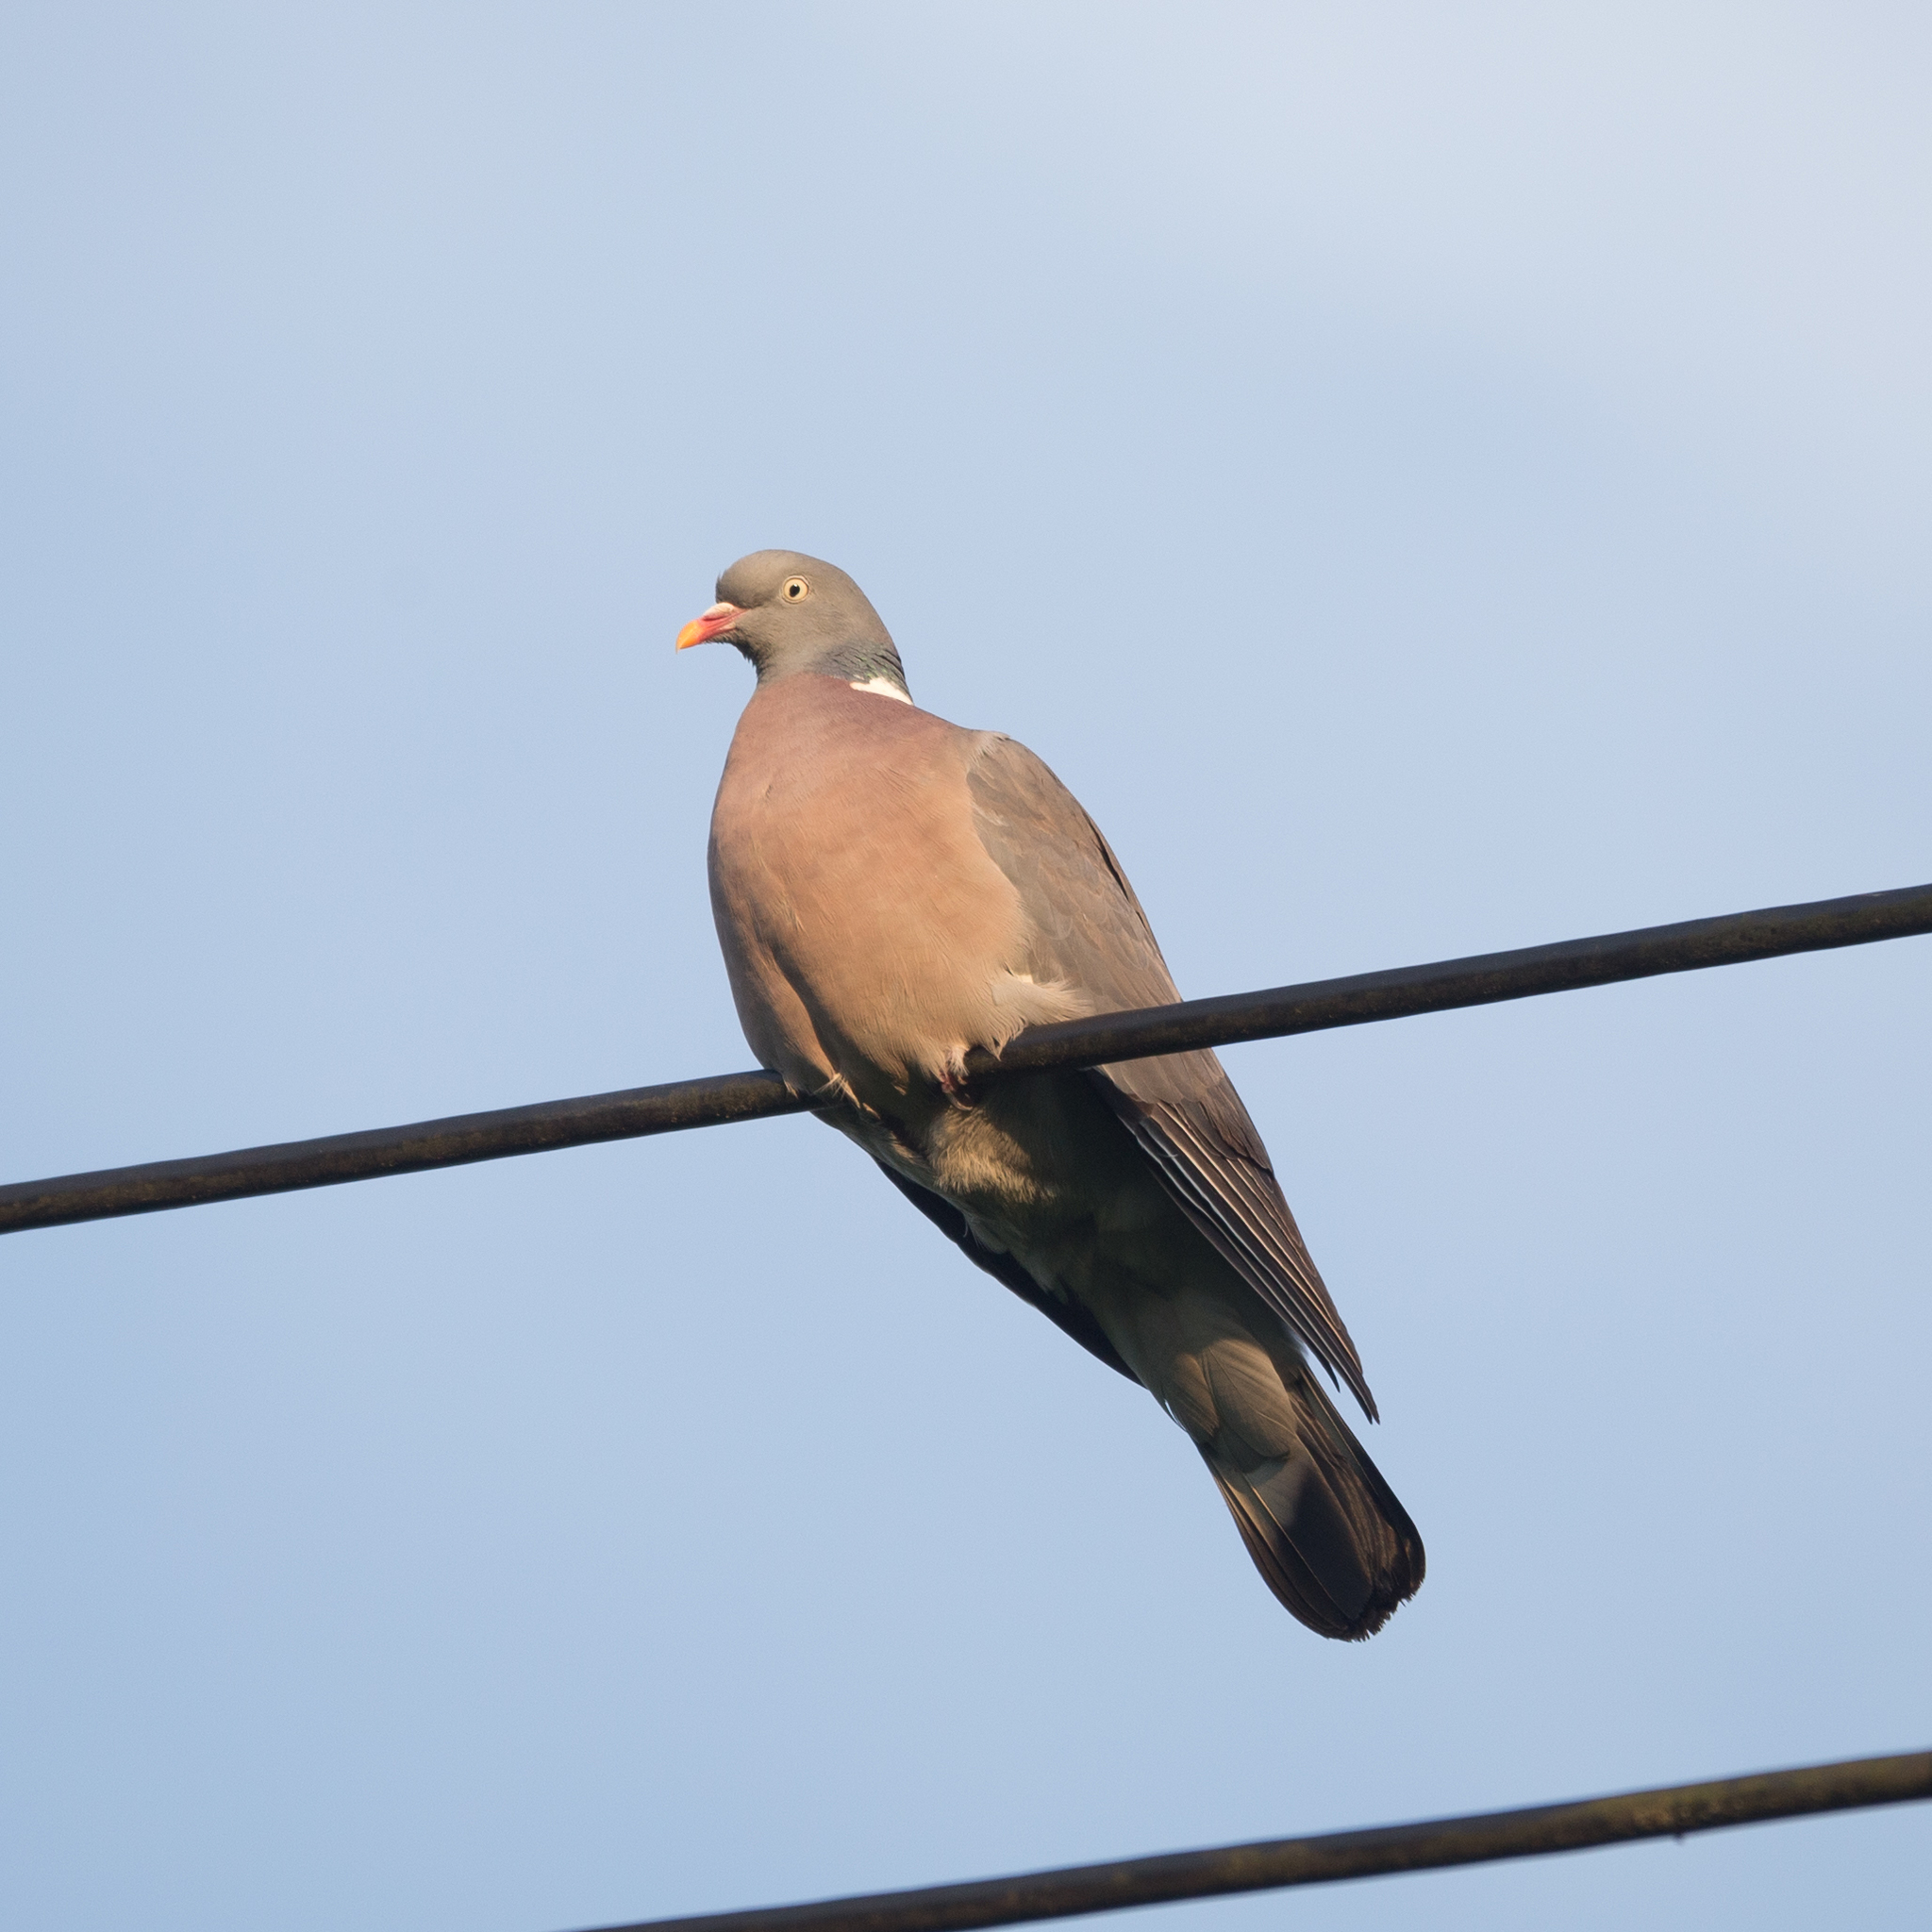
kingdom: Animalia
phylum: Chordata
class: Aves
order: Columbiformes
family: Columbidae
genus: Columba
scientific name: Columba palumbus
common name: Common wood pigeon
